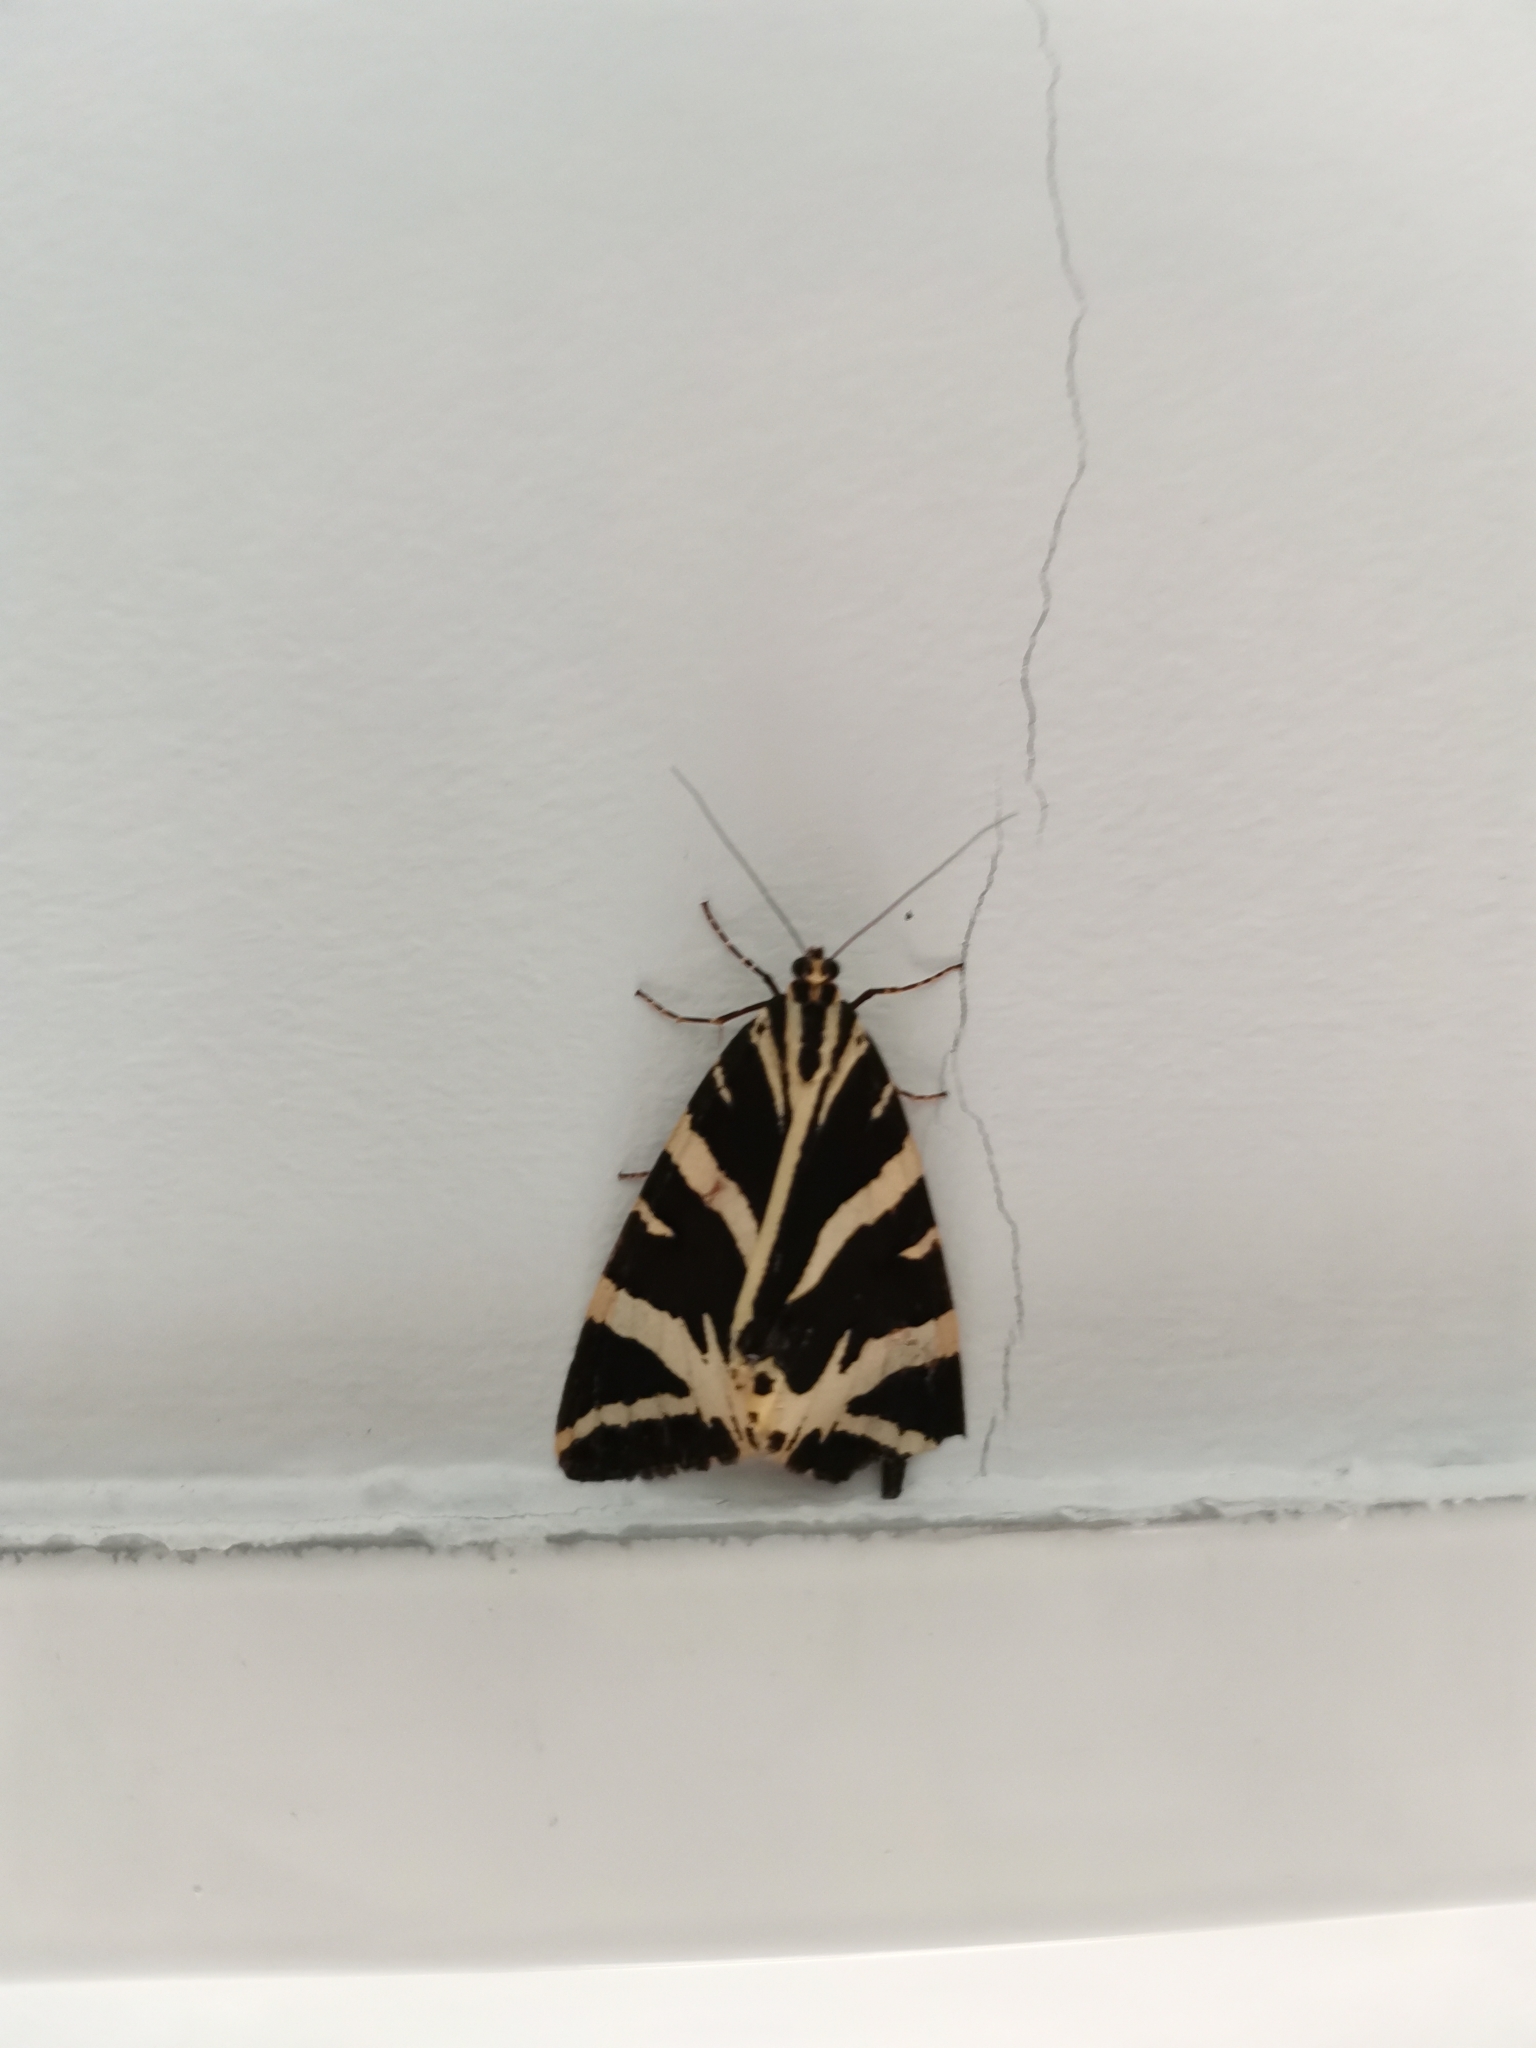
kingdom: Animalia
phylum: Arthropoda
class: Insecta
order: Lepidoptera
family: Erebidae
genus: Euplagia
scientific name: Euplagia quadripunctaria
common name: Jersey tiger
